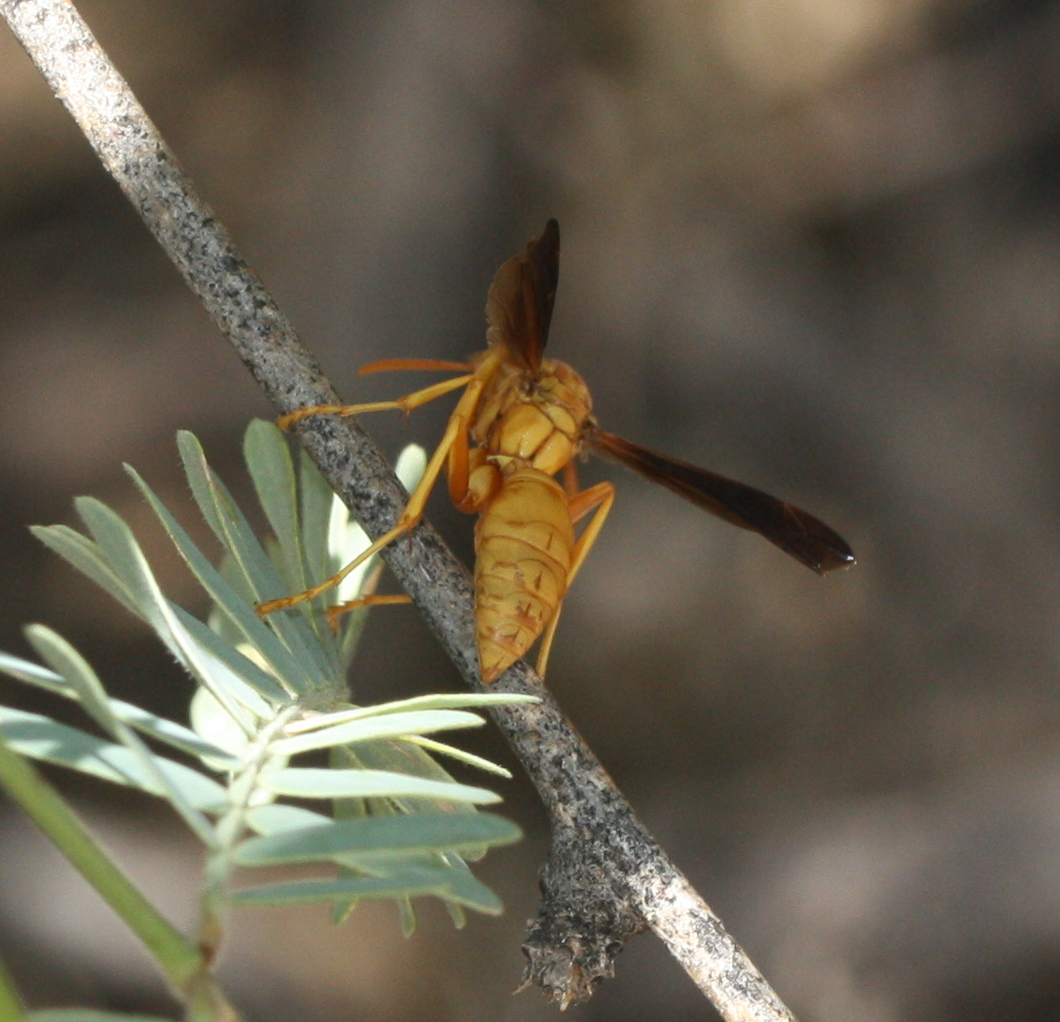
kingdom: Animalia
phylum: Arthropoda
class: Insecta
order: Hymenoptera
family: Eumenidae
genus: Polistes
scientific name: Polistes flavus
